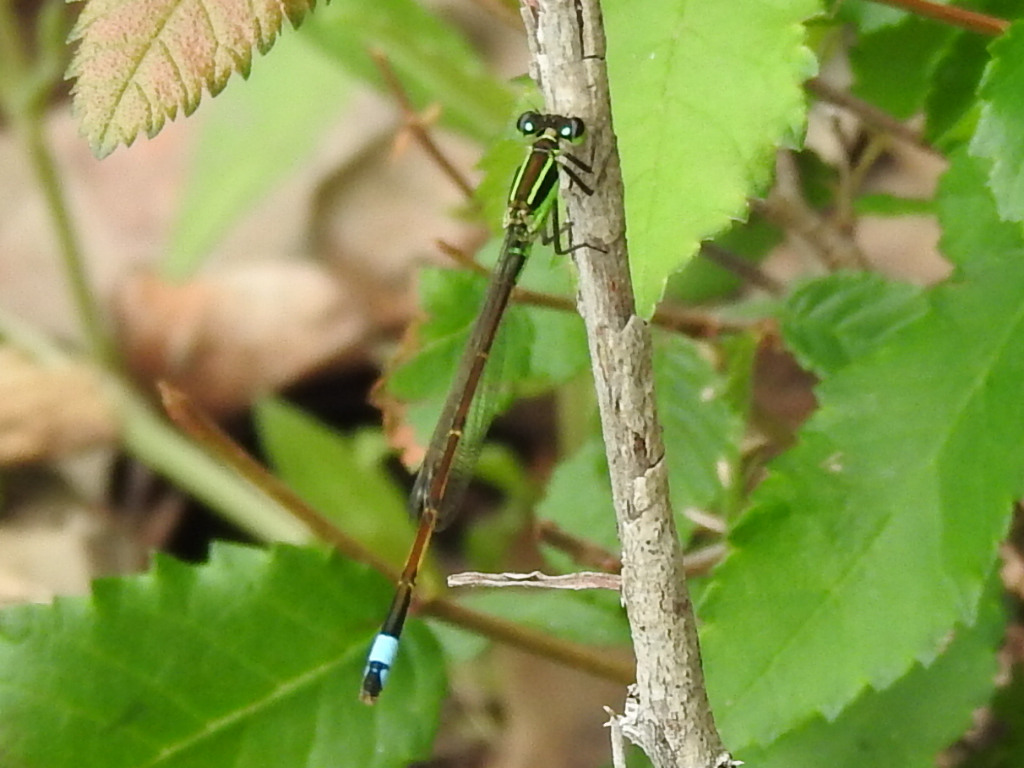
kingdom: Animalia
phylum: Arthropoda
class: Insecta
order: Odonata
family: Coenagrionidae
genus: Ischnura
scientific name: Ischnura ramburii
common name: Rambur's forktail
